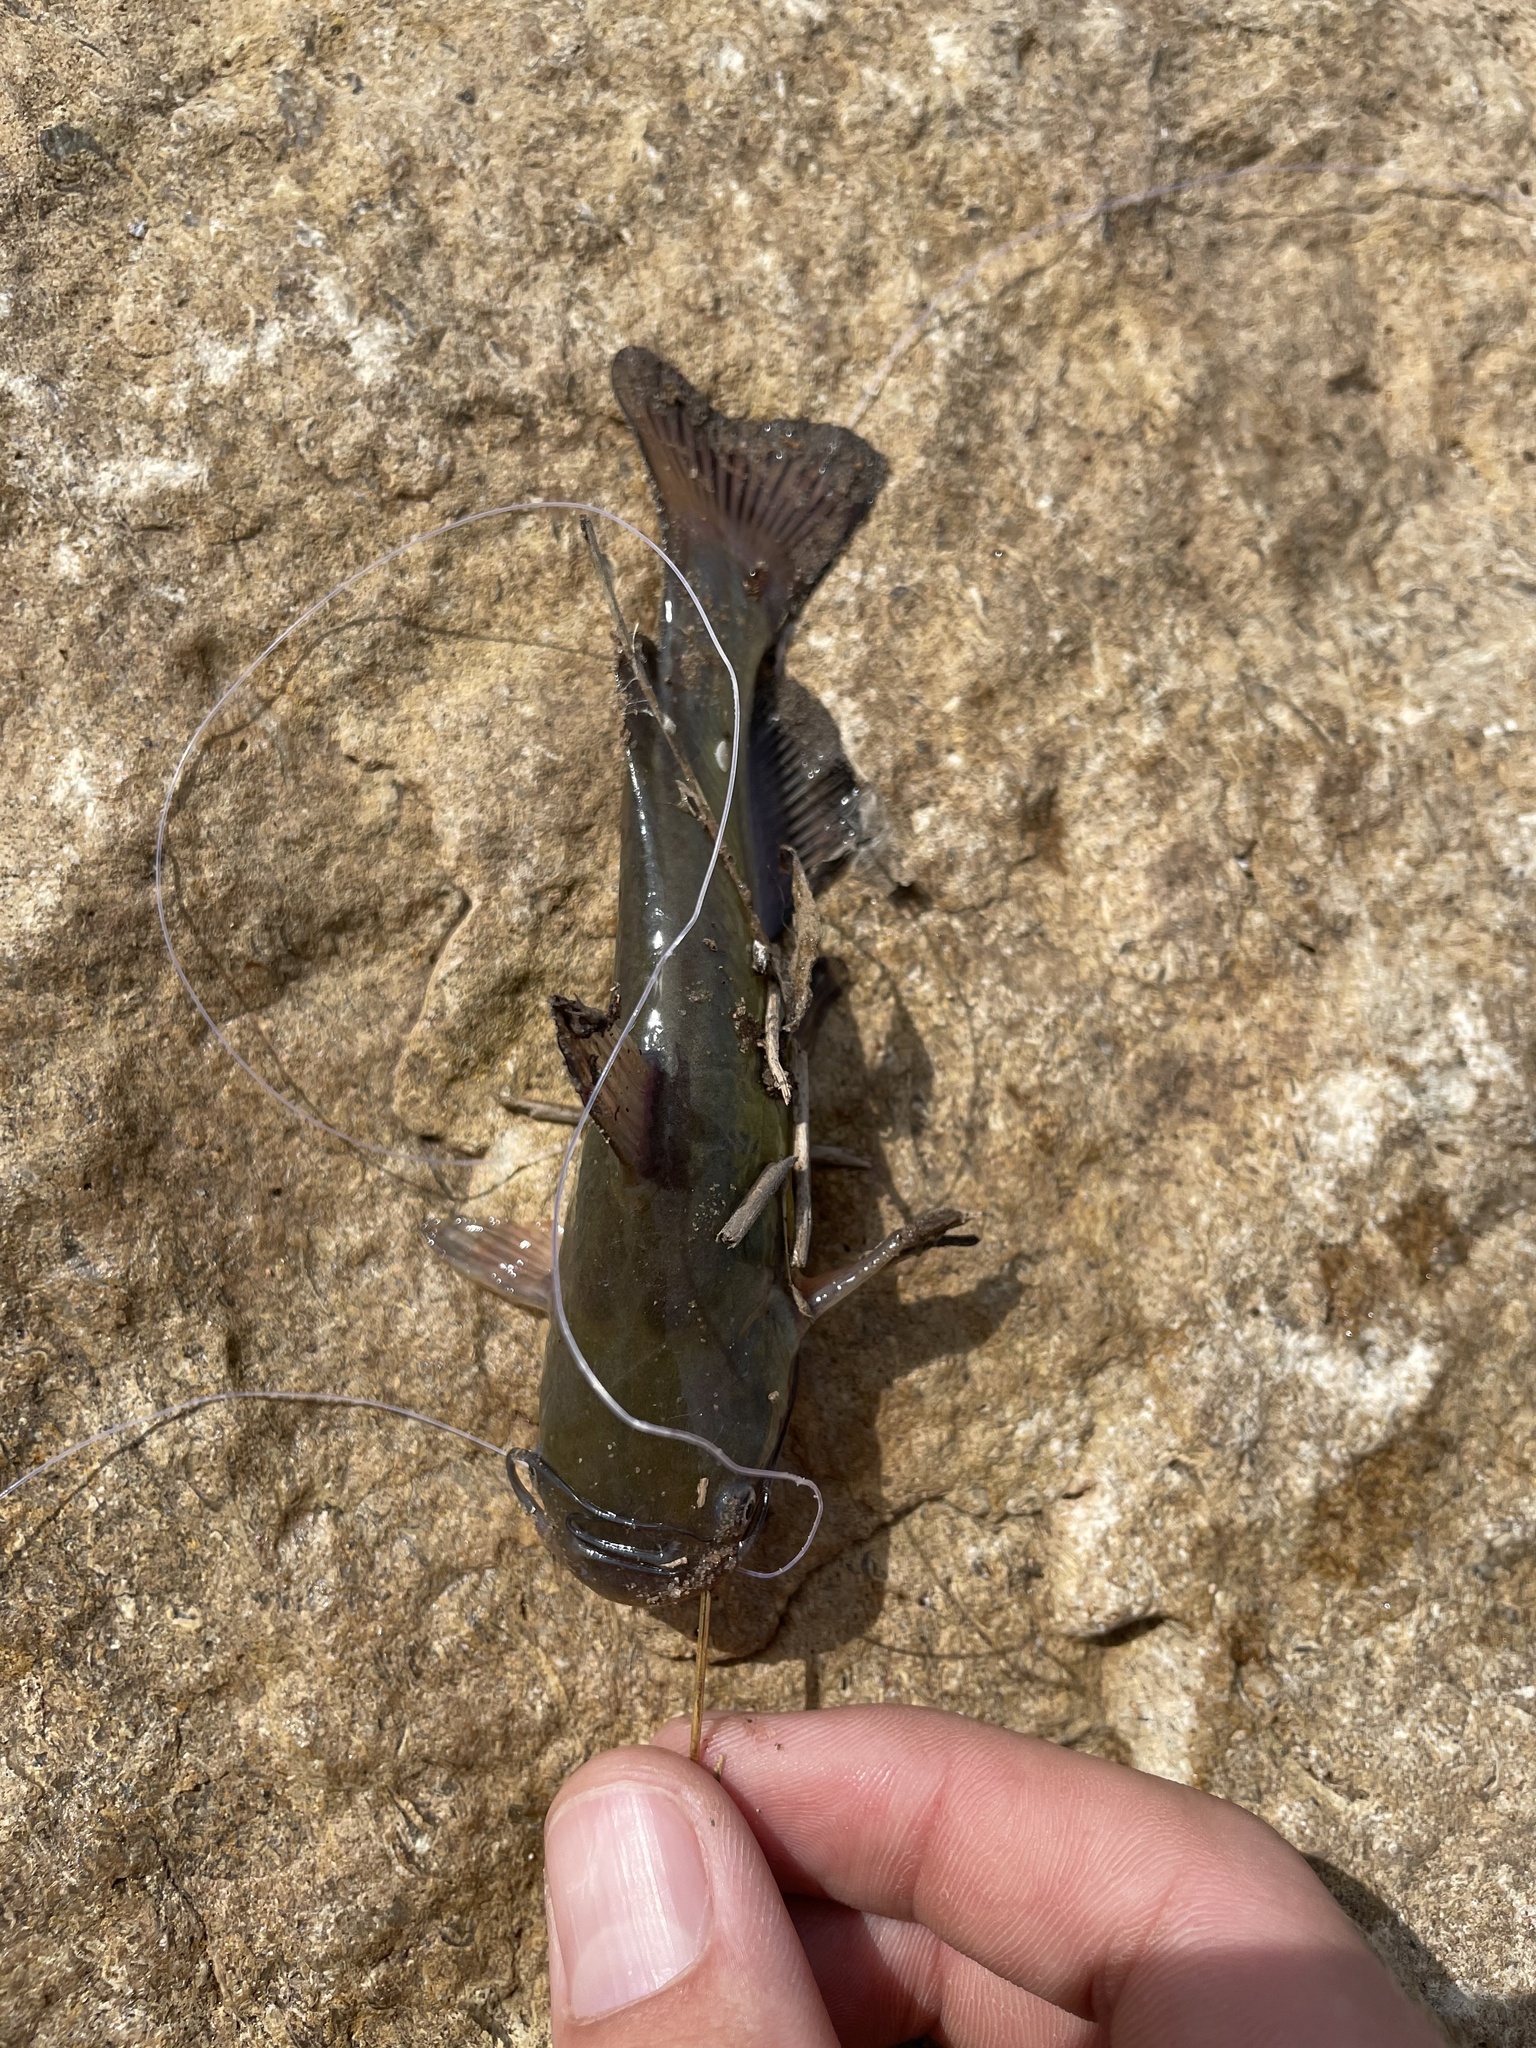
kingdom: Animalia
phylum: Chordata
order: Siluriformes
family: Ictaluridae
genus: Ameiurus
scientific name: Ameiurus melas
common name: Black bullhead
